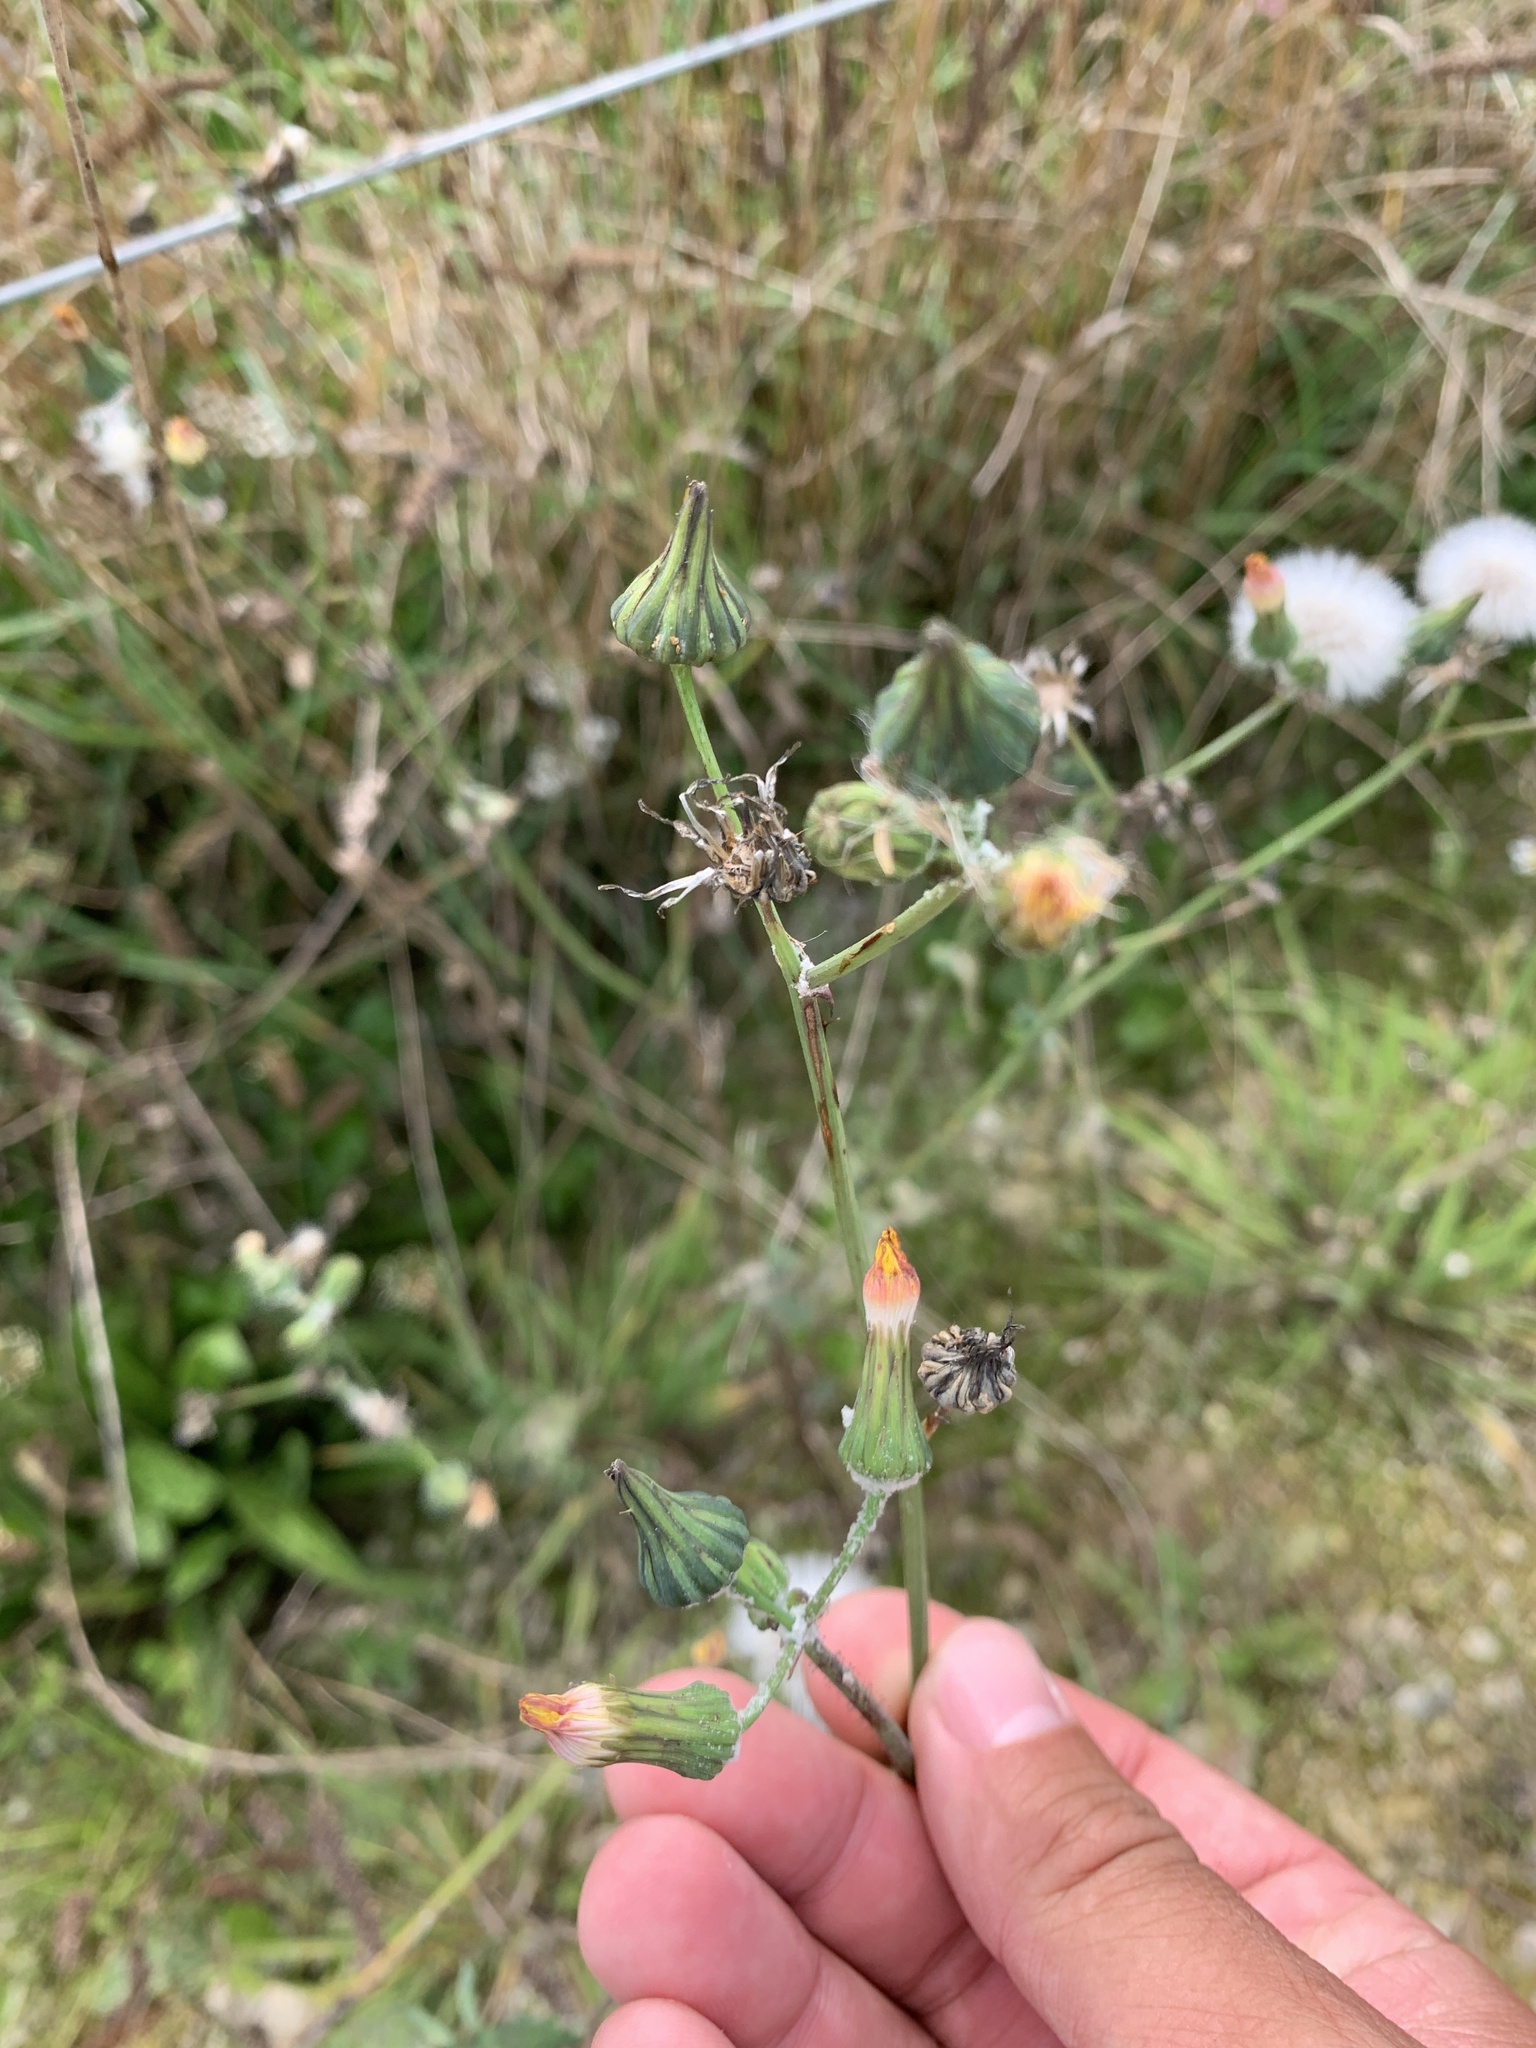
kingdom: Plantae
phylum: Tracheophyta
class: Magnoliopsida
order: Asterales
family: Asteraceae
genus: Sonchus
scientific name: Sonchus oleraceus
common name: Common sowthistle
